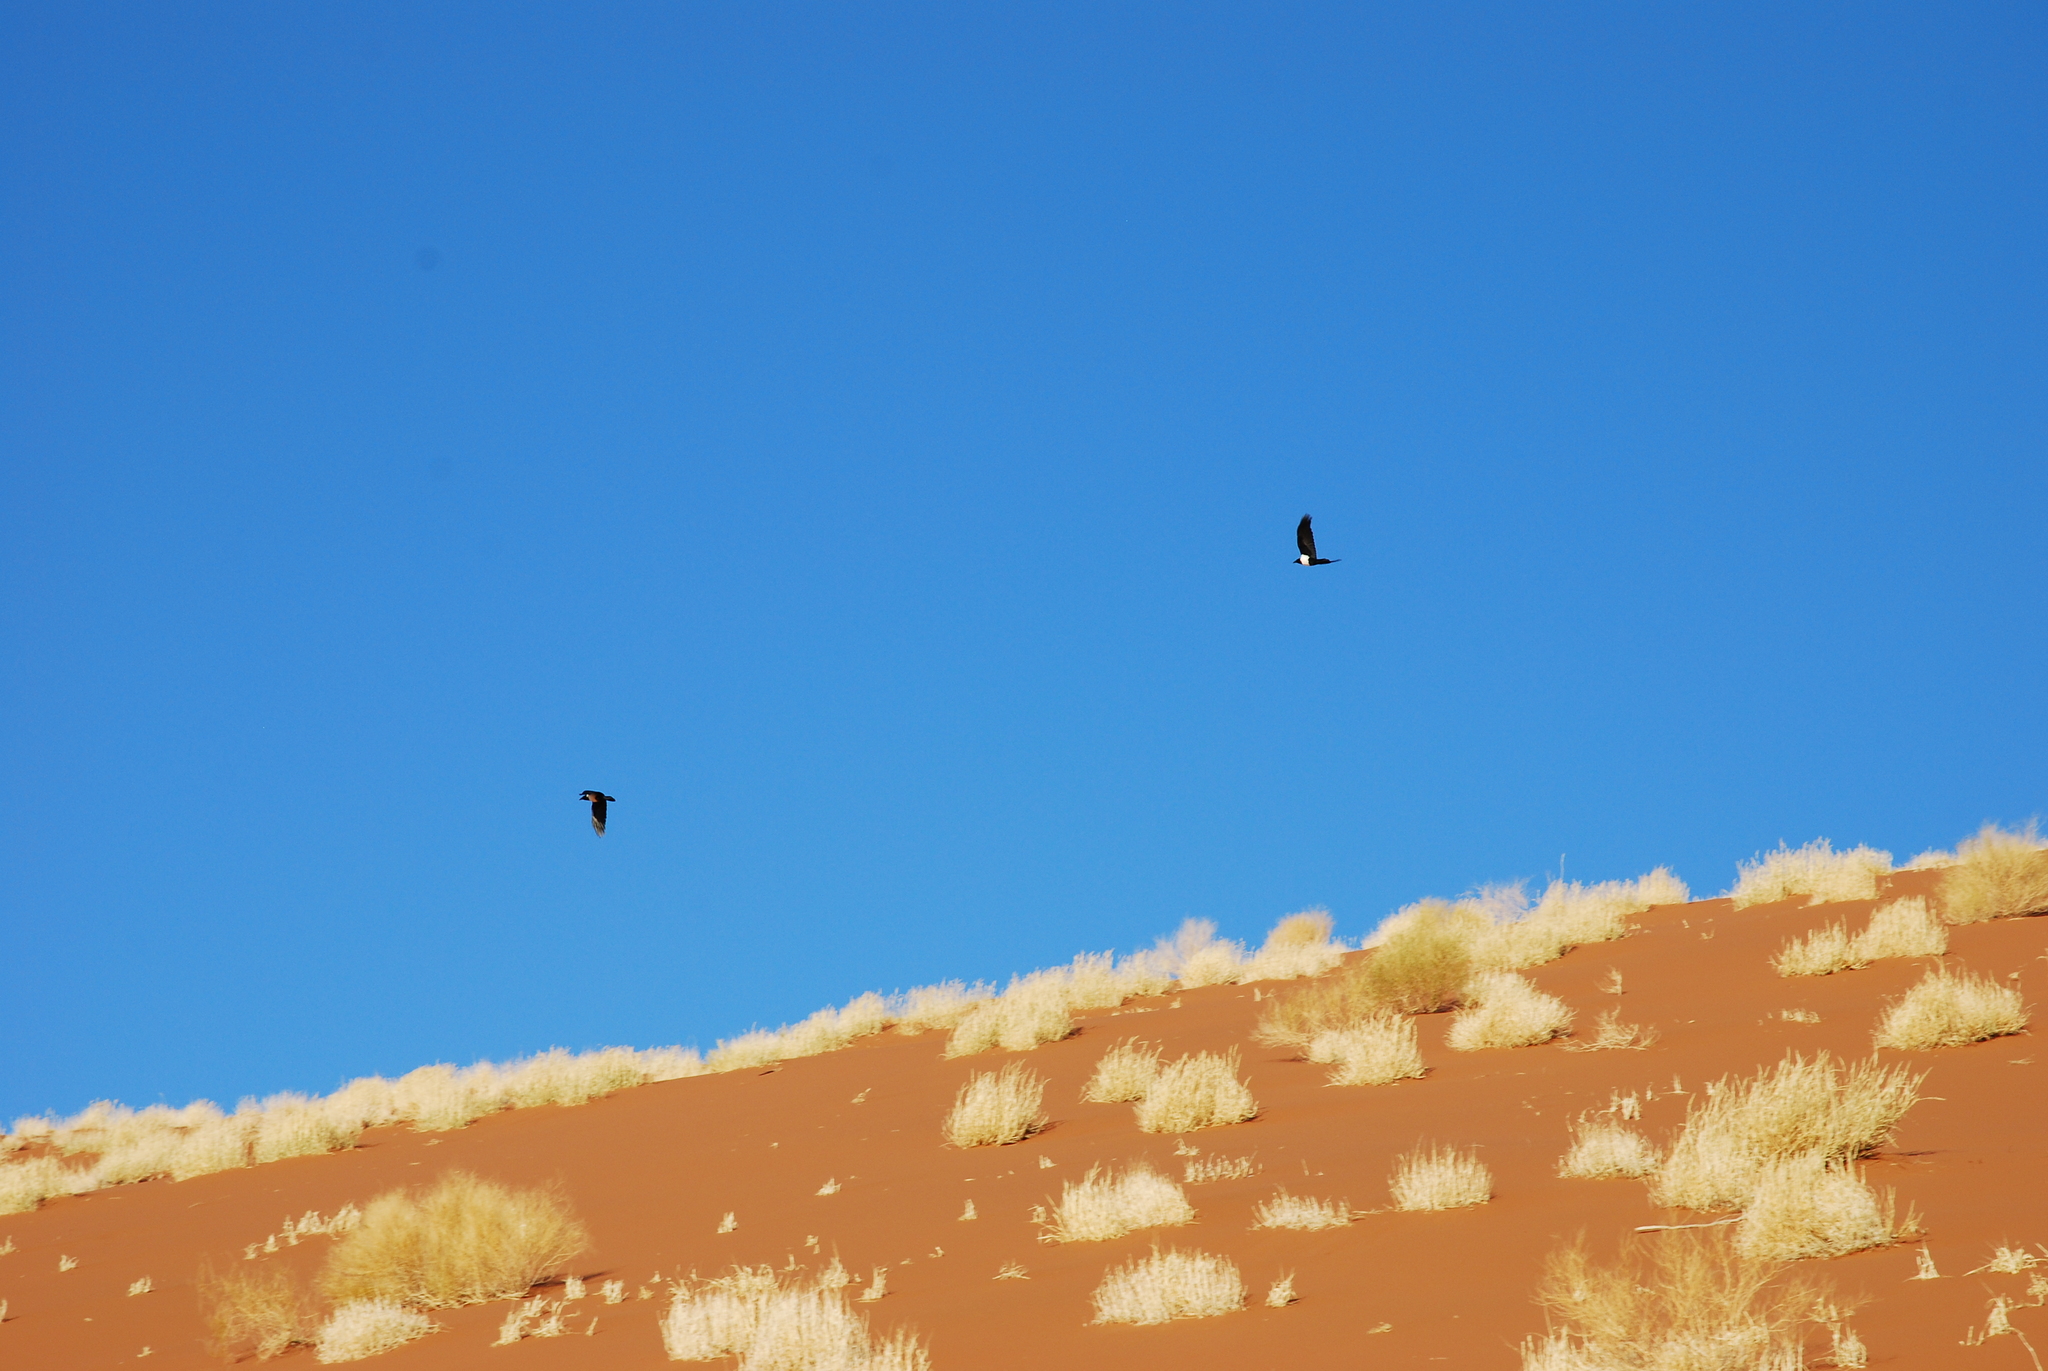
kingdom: Animalia
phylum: Chordata
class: Aves
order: Passeriformes
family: Corvidae
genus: Corvus
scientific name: Corvus albus
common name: Pied crow
